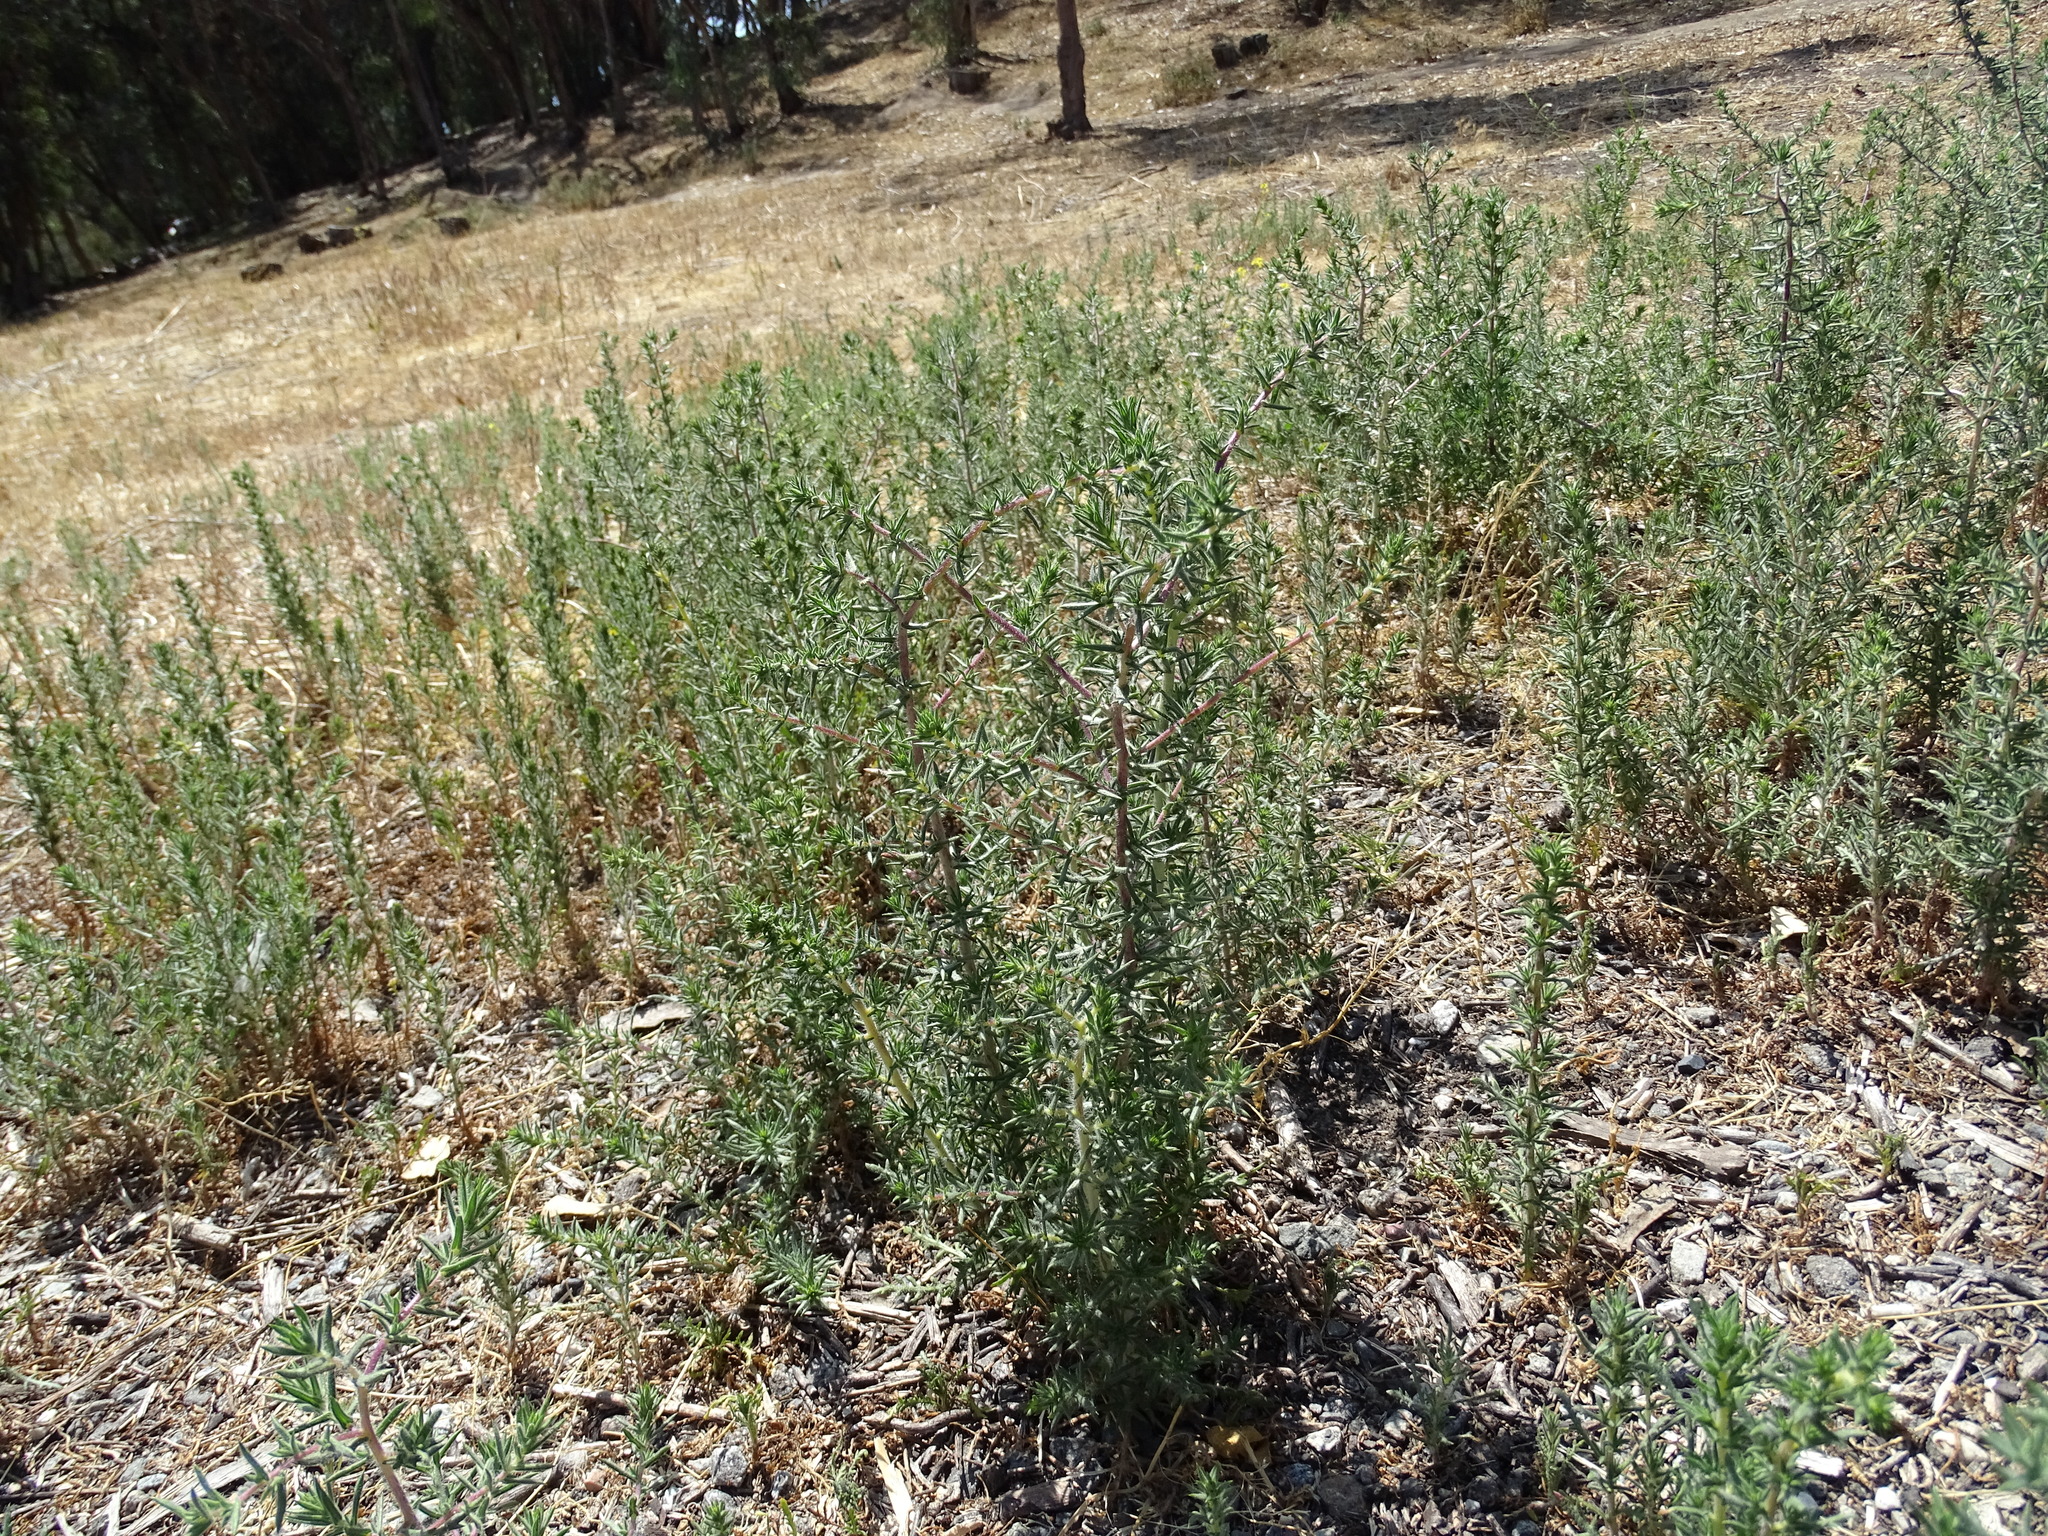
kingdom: Plantae
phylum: Tracheophyta
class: Magnoliopsida
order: Caryophyllales
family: Amaranthaceae
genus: Salsola
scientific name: Salsola
